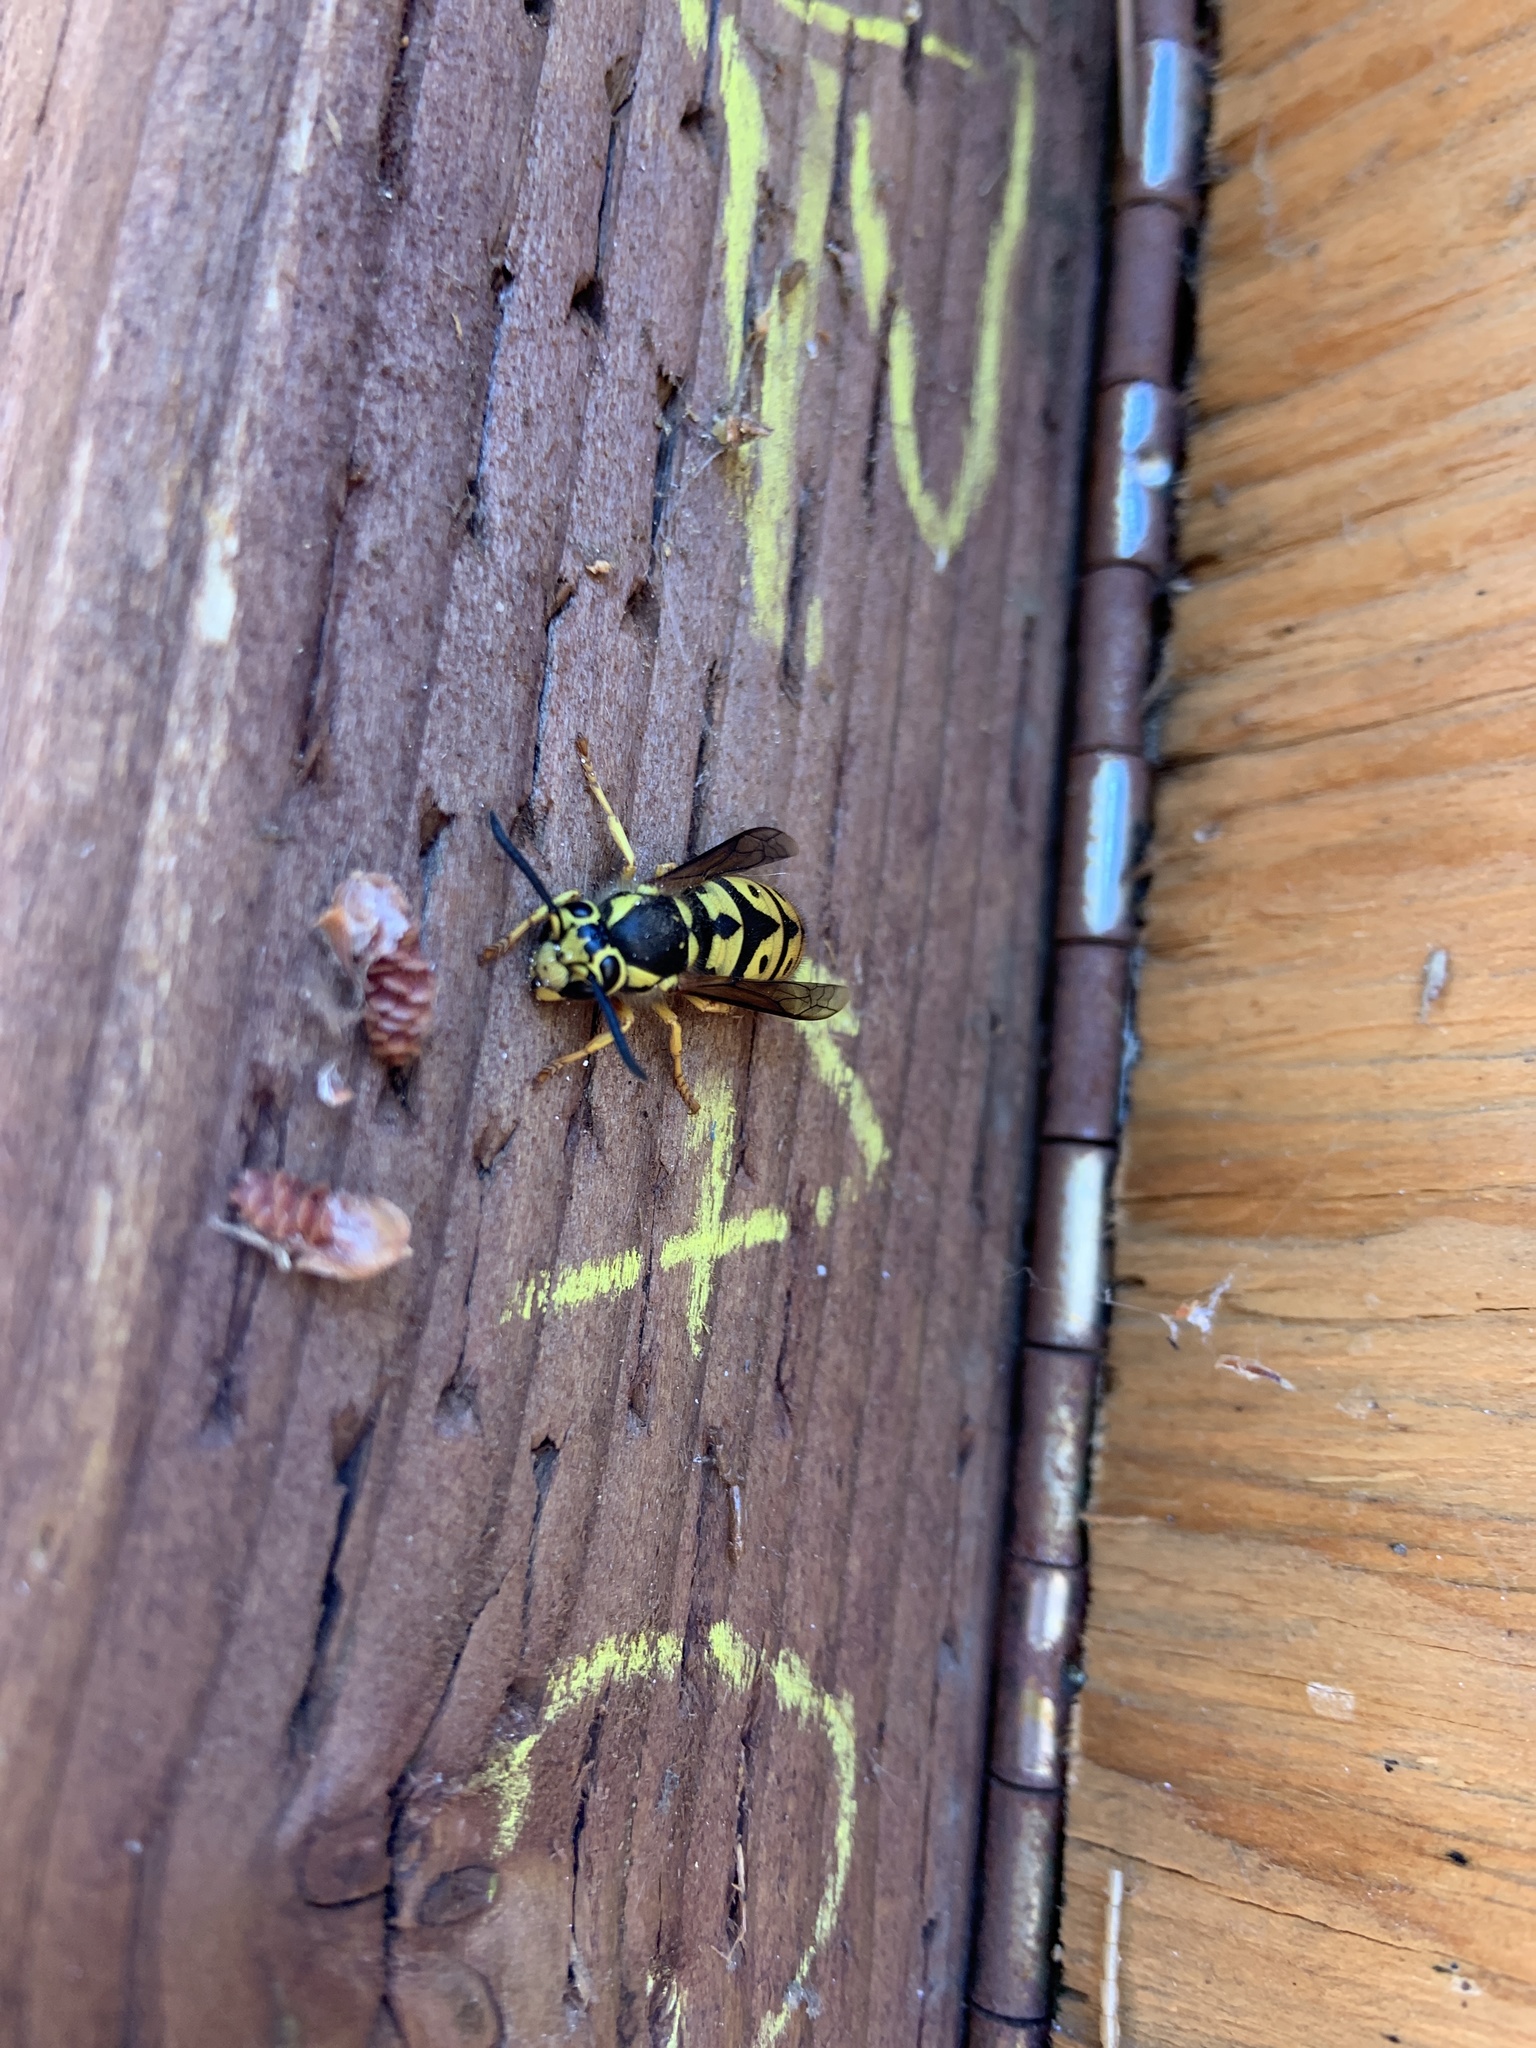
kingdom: Animalia
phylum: Arthropoda
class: Insecta
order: Hymenoptera
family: Vespidae
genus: Vespula
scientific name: Vespula pensylvanica
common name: Western yellowjacket
